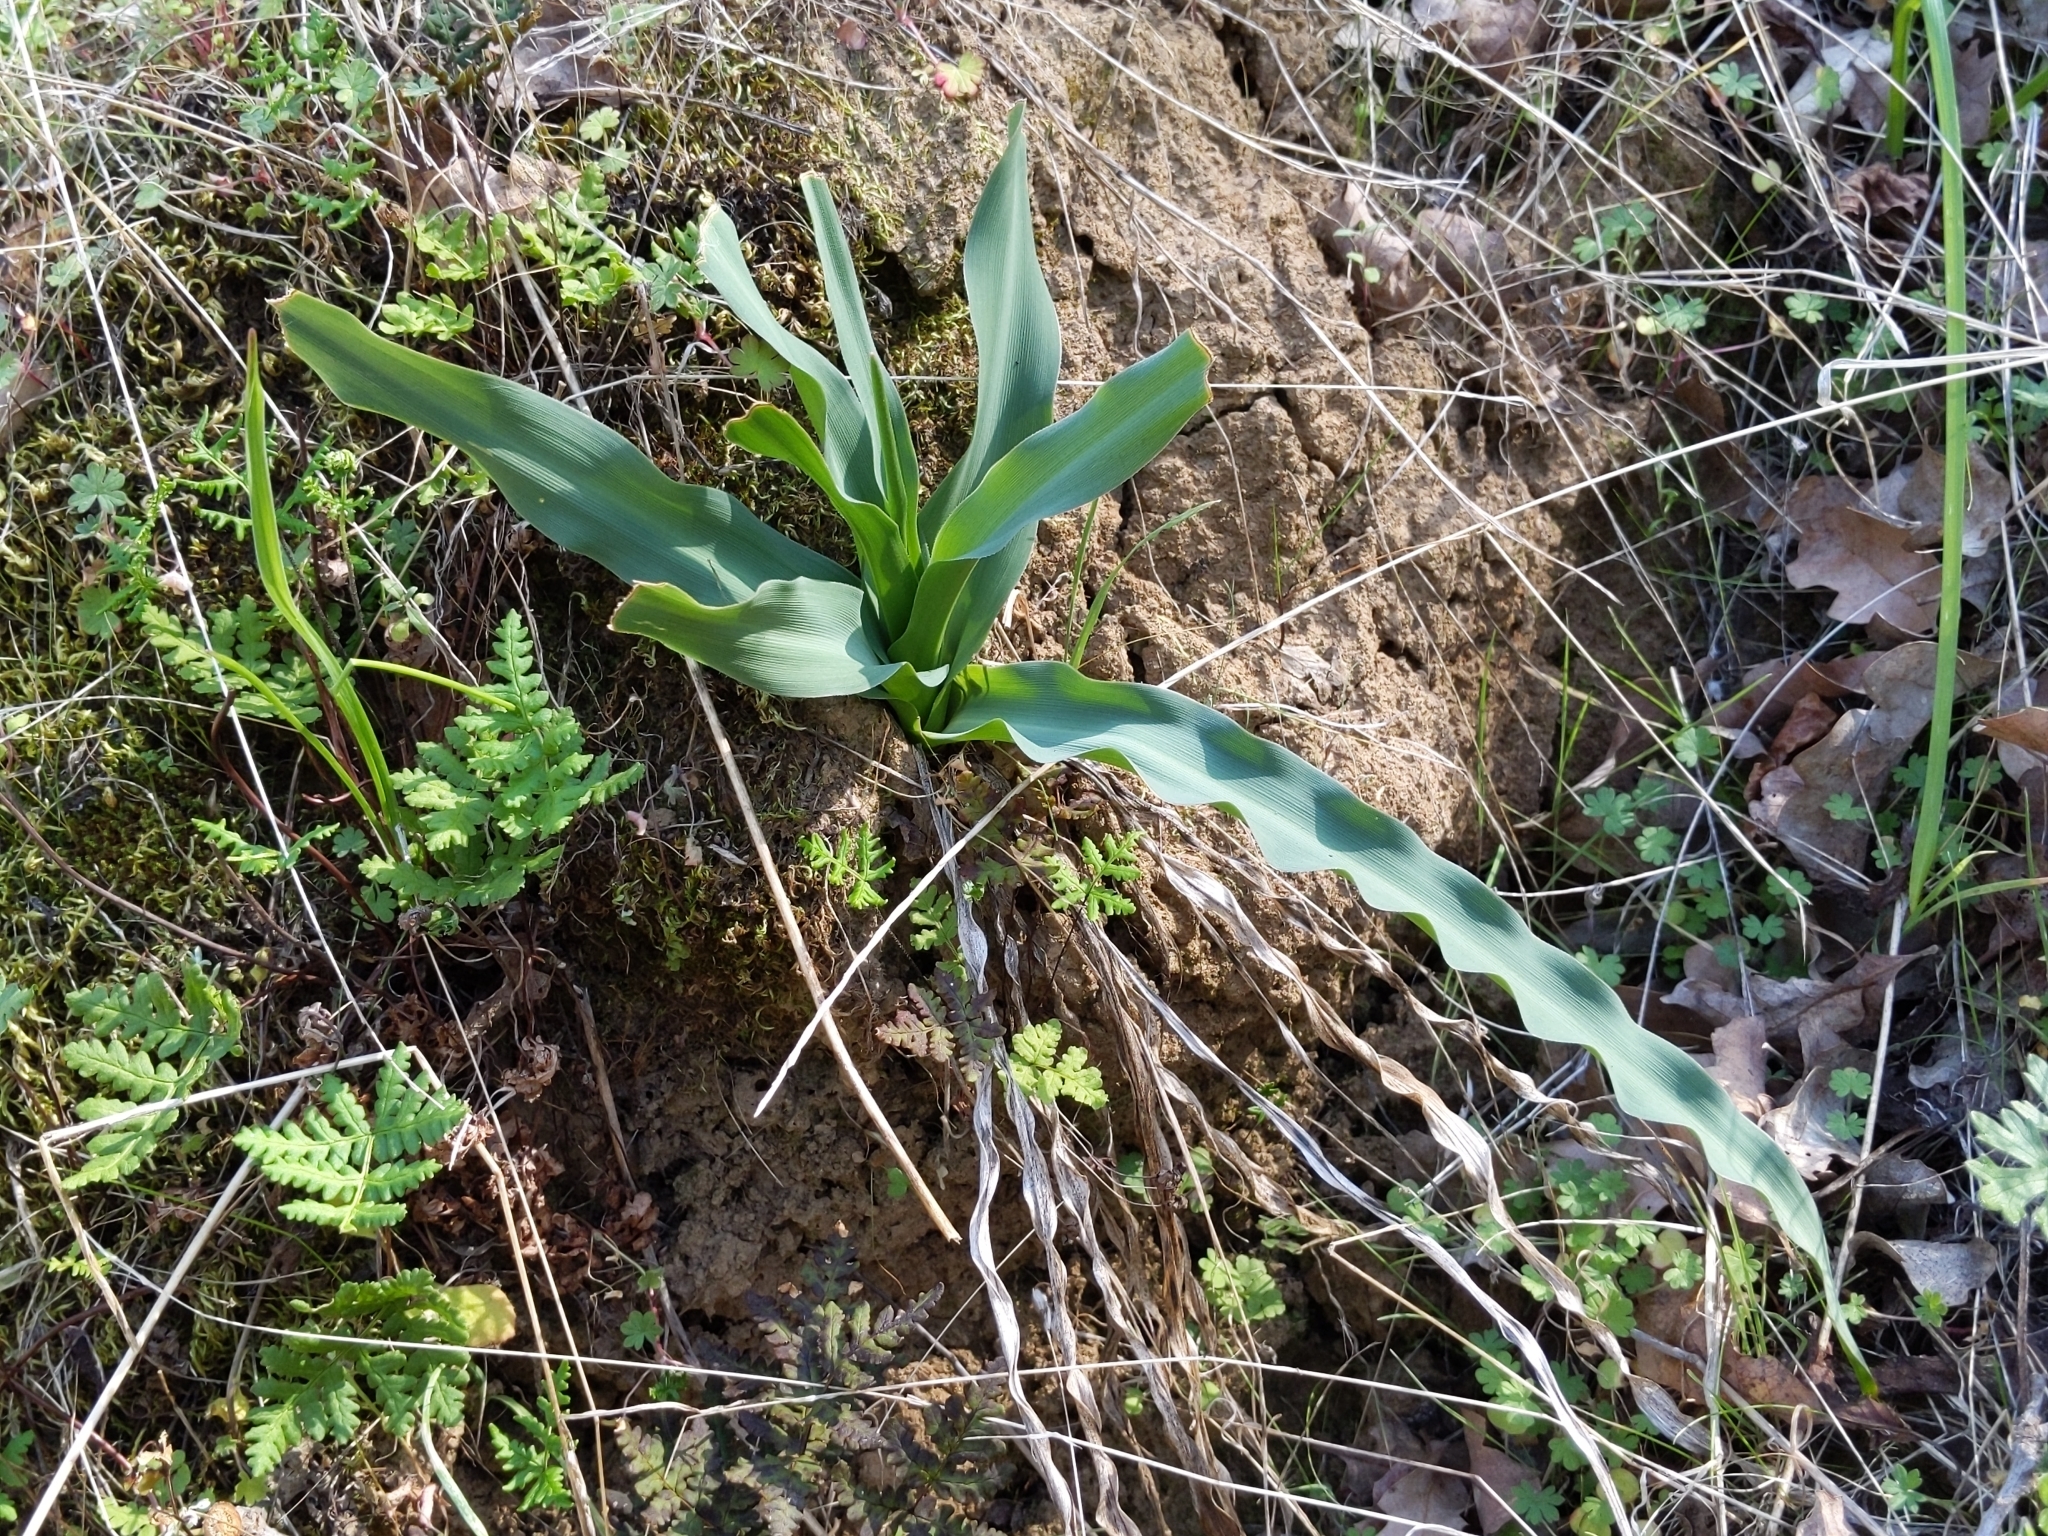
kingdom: Plantae
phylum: Tracheophyta
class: Liliopsida
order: Asparagales
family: Asparagaceae
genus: Chlorogalum
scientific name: Chlorogalum pomeridianum
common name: Amole
